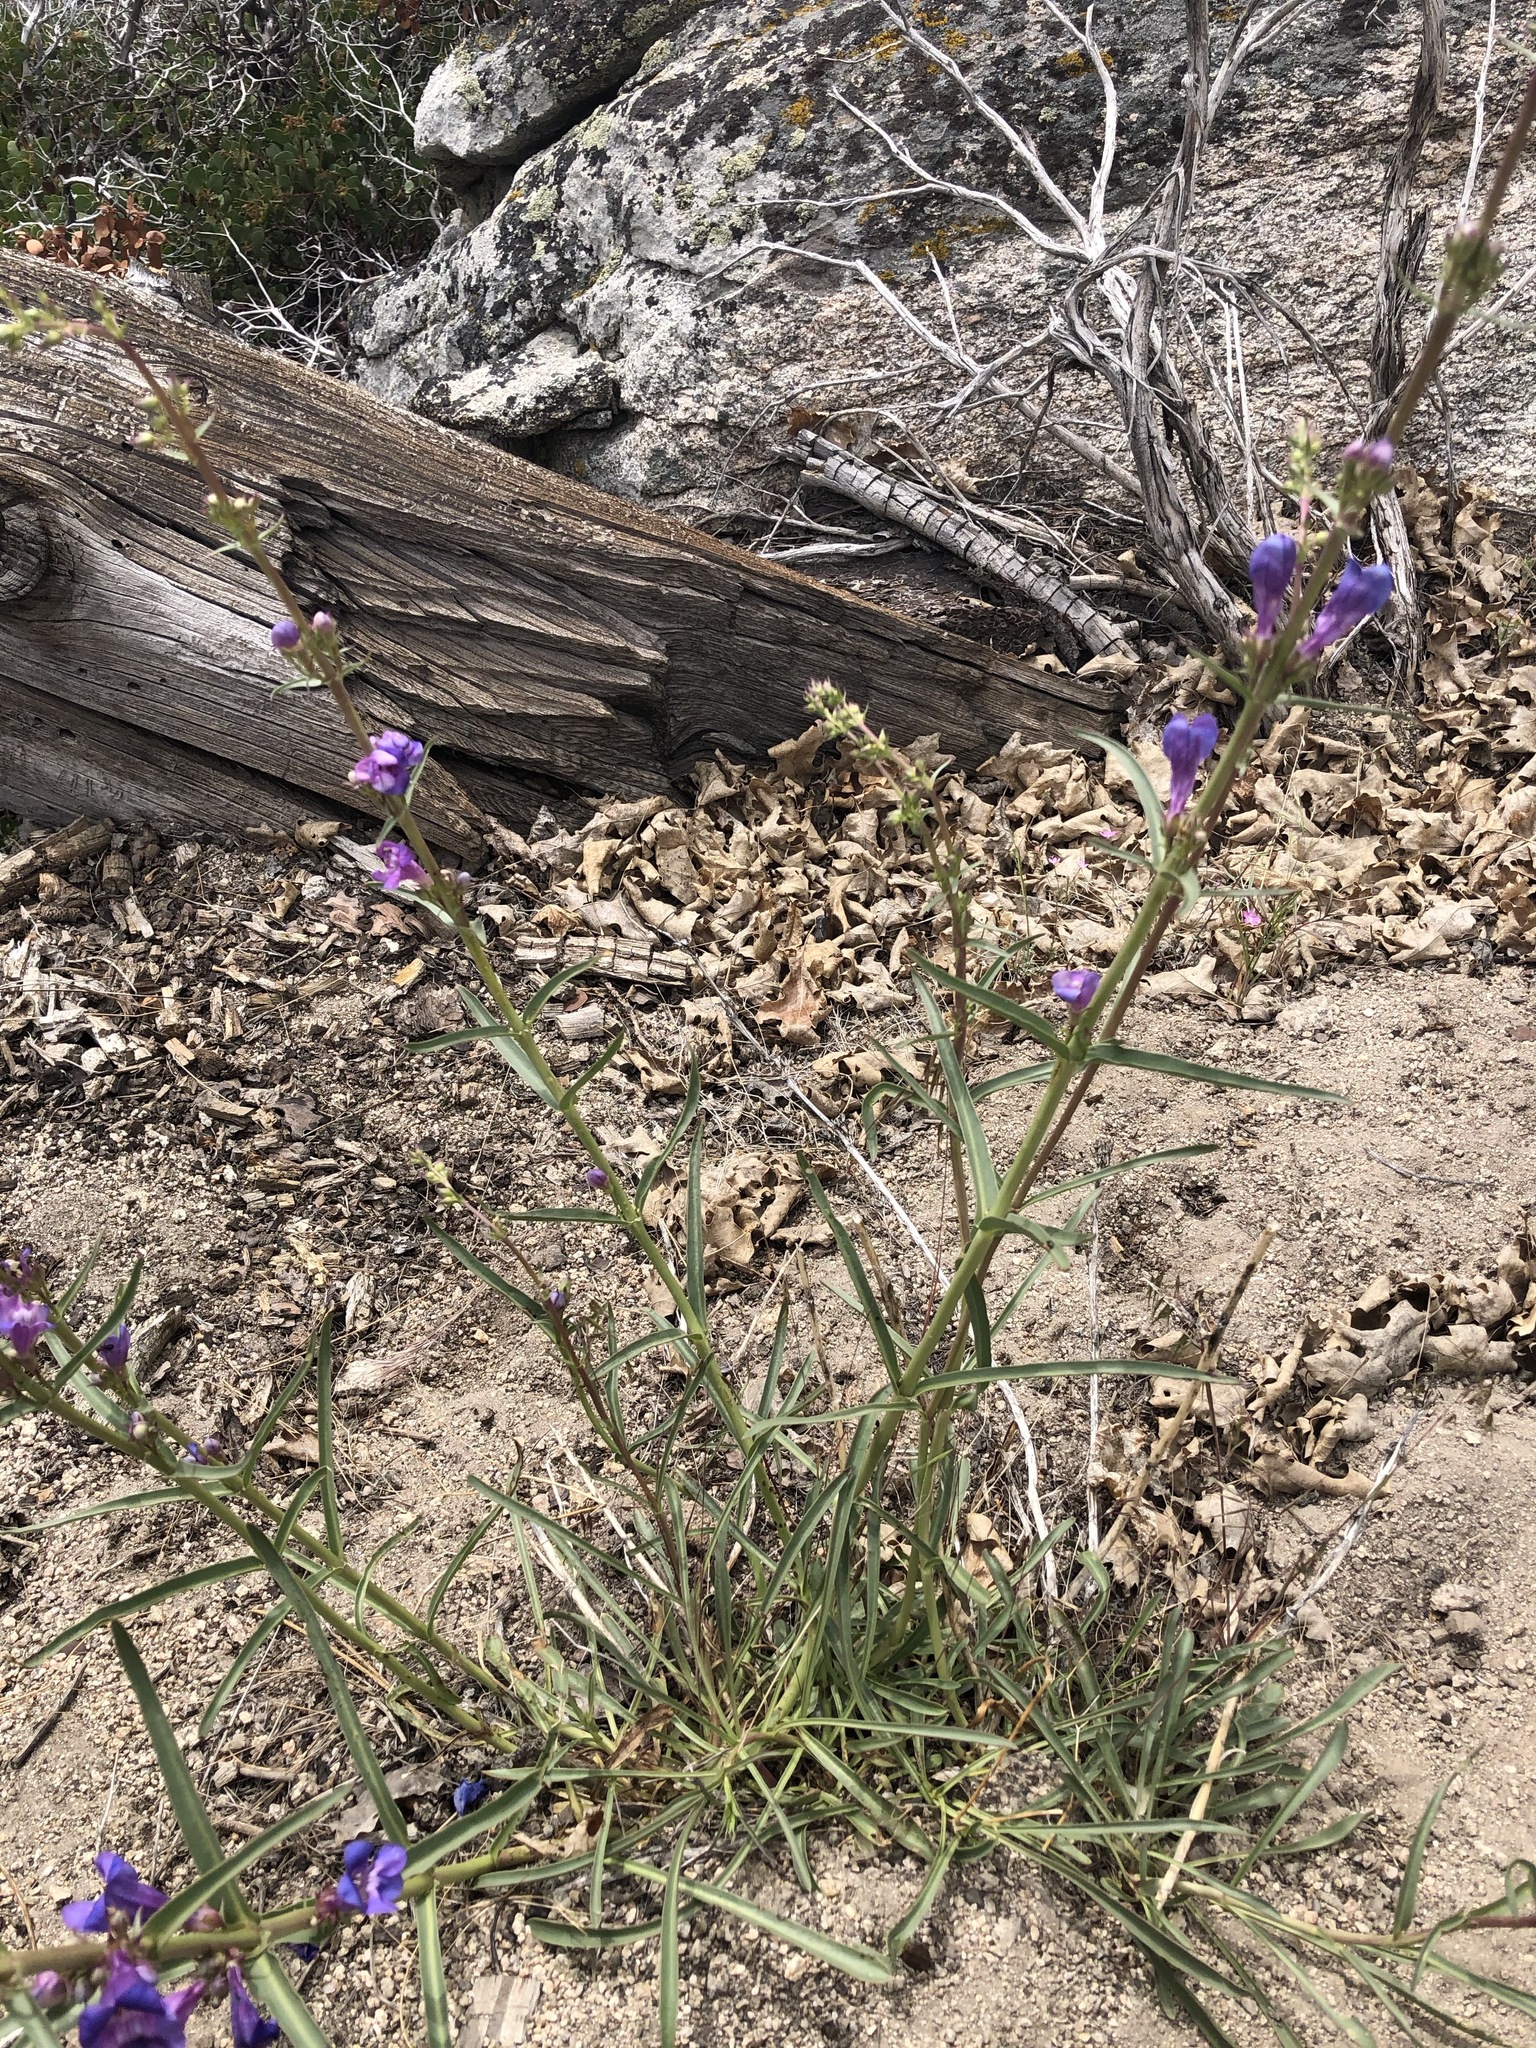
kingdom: Plantae
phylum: Tracheophyta
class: Magnoliopsida
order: Lamiales
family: Plantaginaceae
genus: Penstemon
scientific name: Penstemon speciosus
